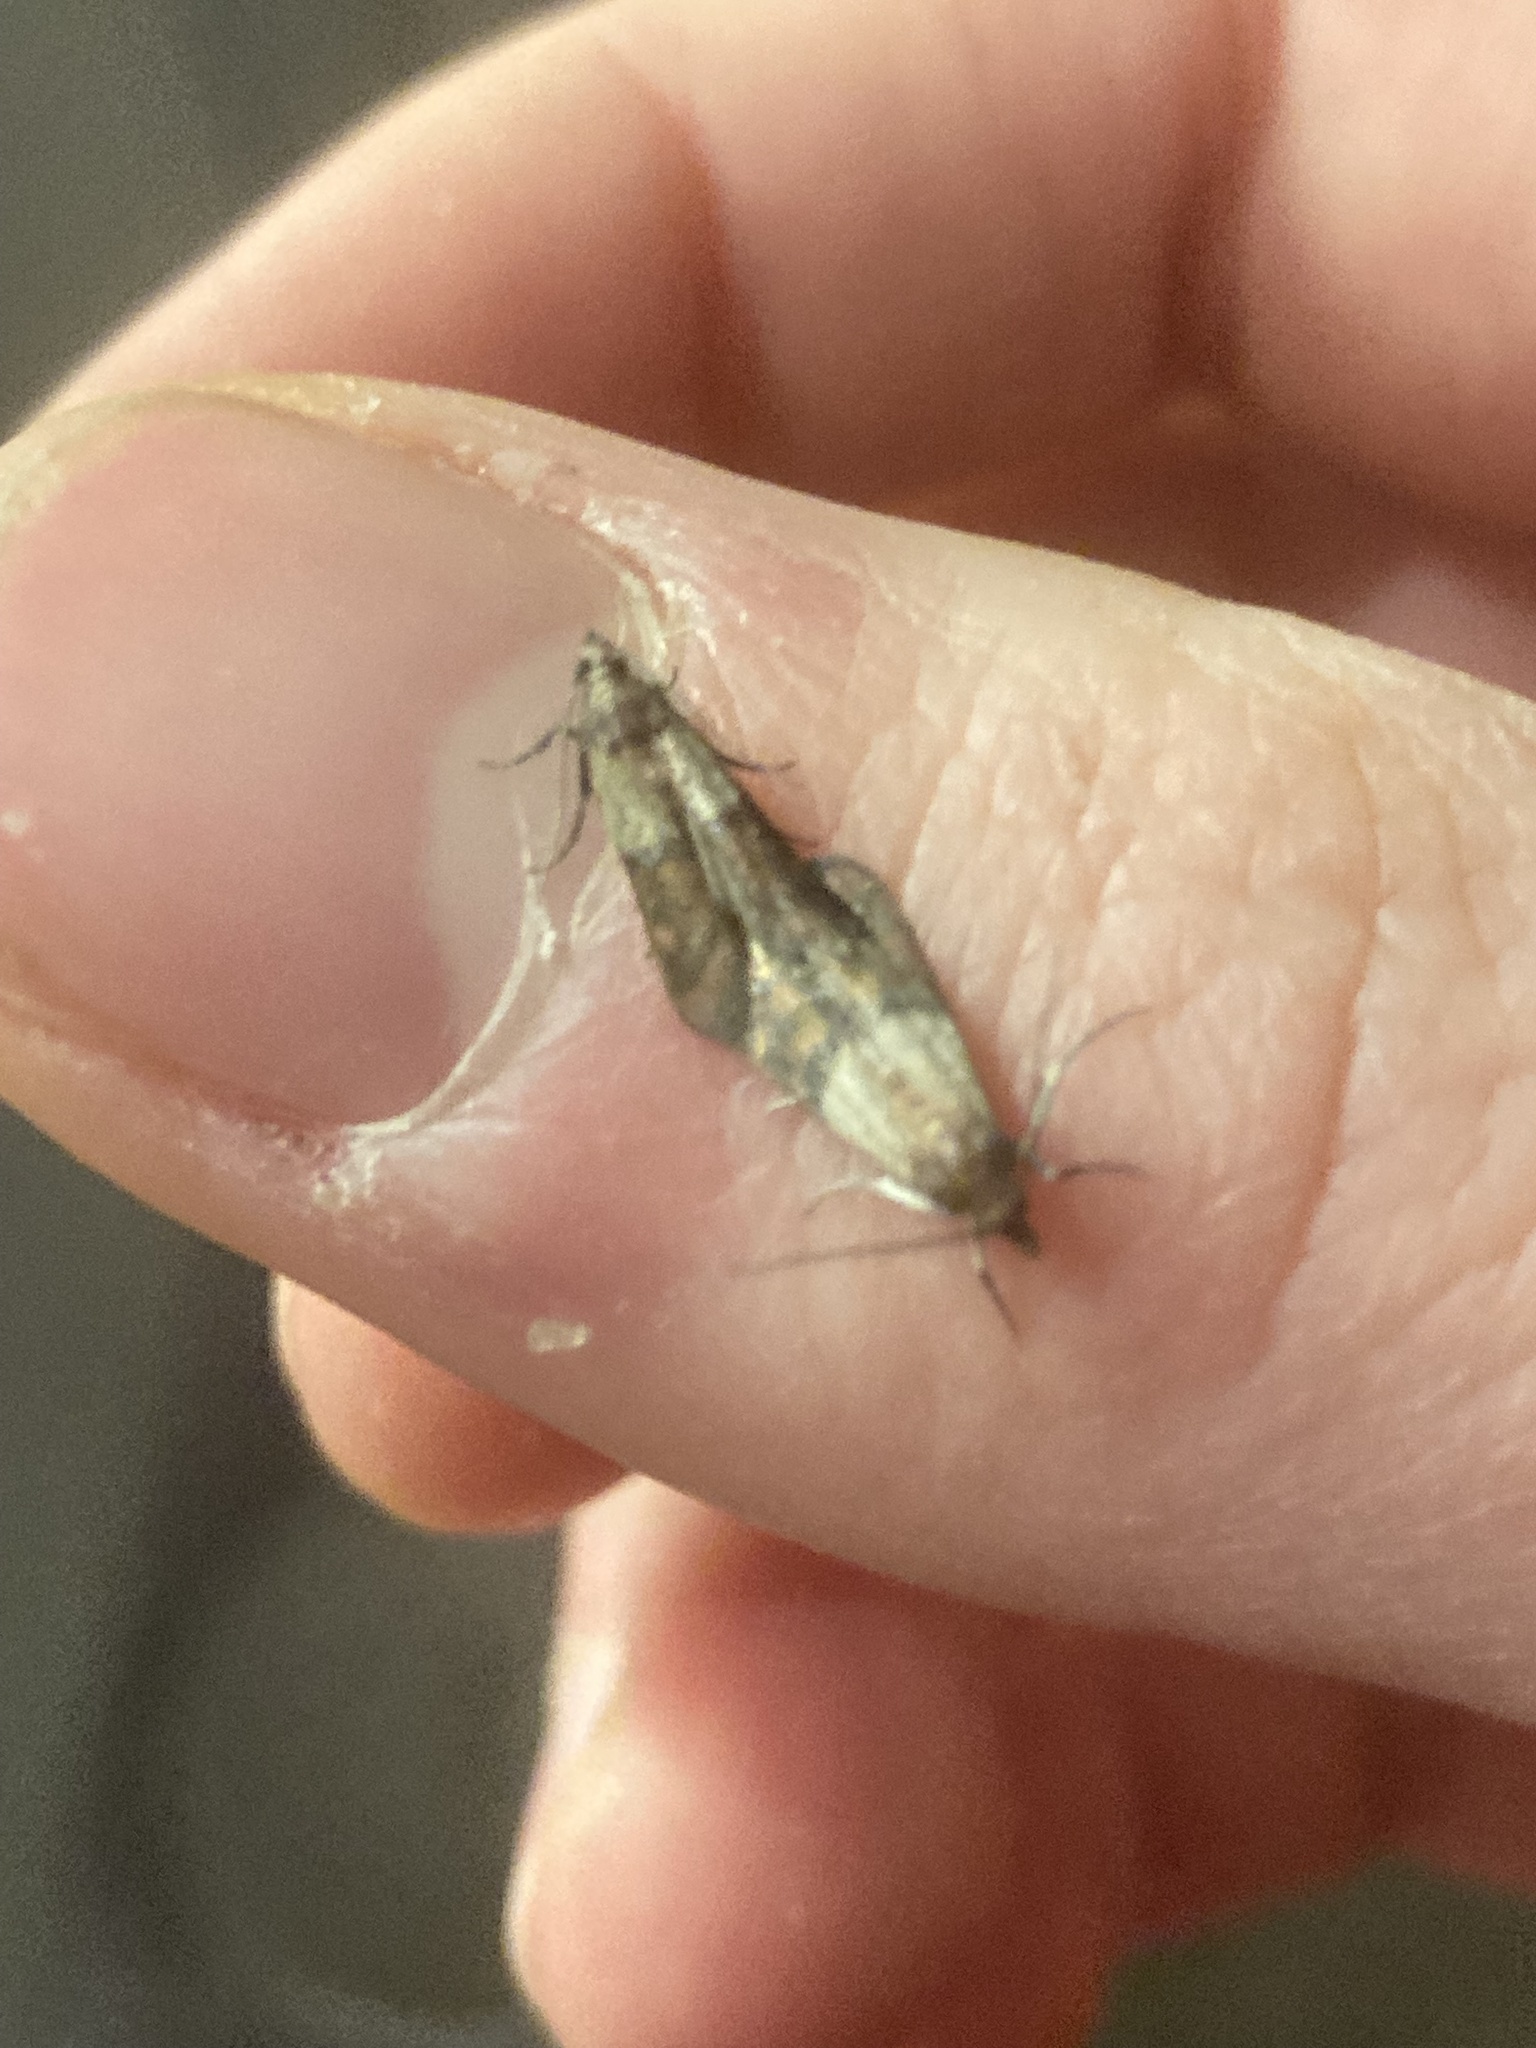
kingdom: Animalia
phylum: Arthropoda
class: Insecta
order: Lepidoptera
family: Pyralidae
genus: Plodia
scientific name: Plodia interpunctella
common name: Indian meal moth
